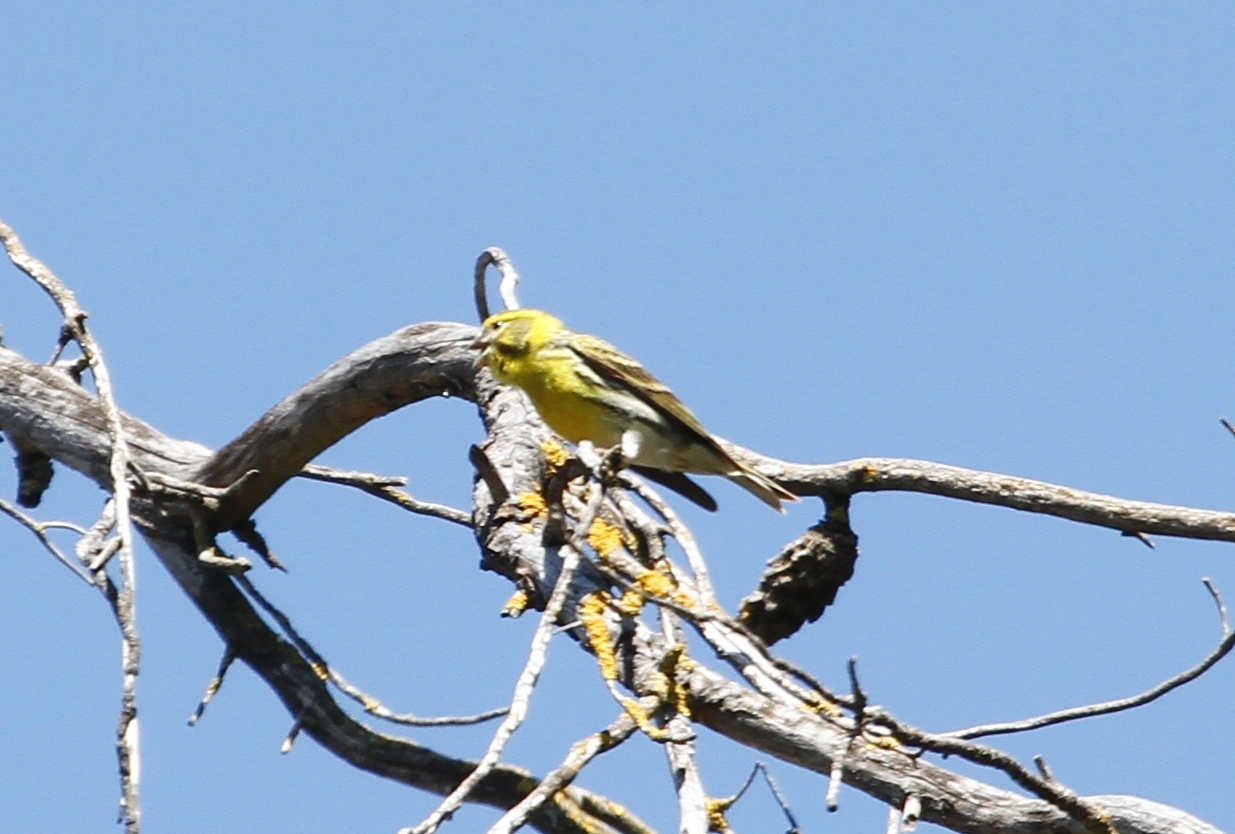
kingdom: Animalia
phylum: Chordata
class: Aves
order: Passeriformes
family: Fringillidae
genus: Serinus
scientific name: Serinus serinus
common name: European serin
